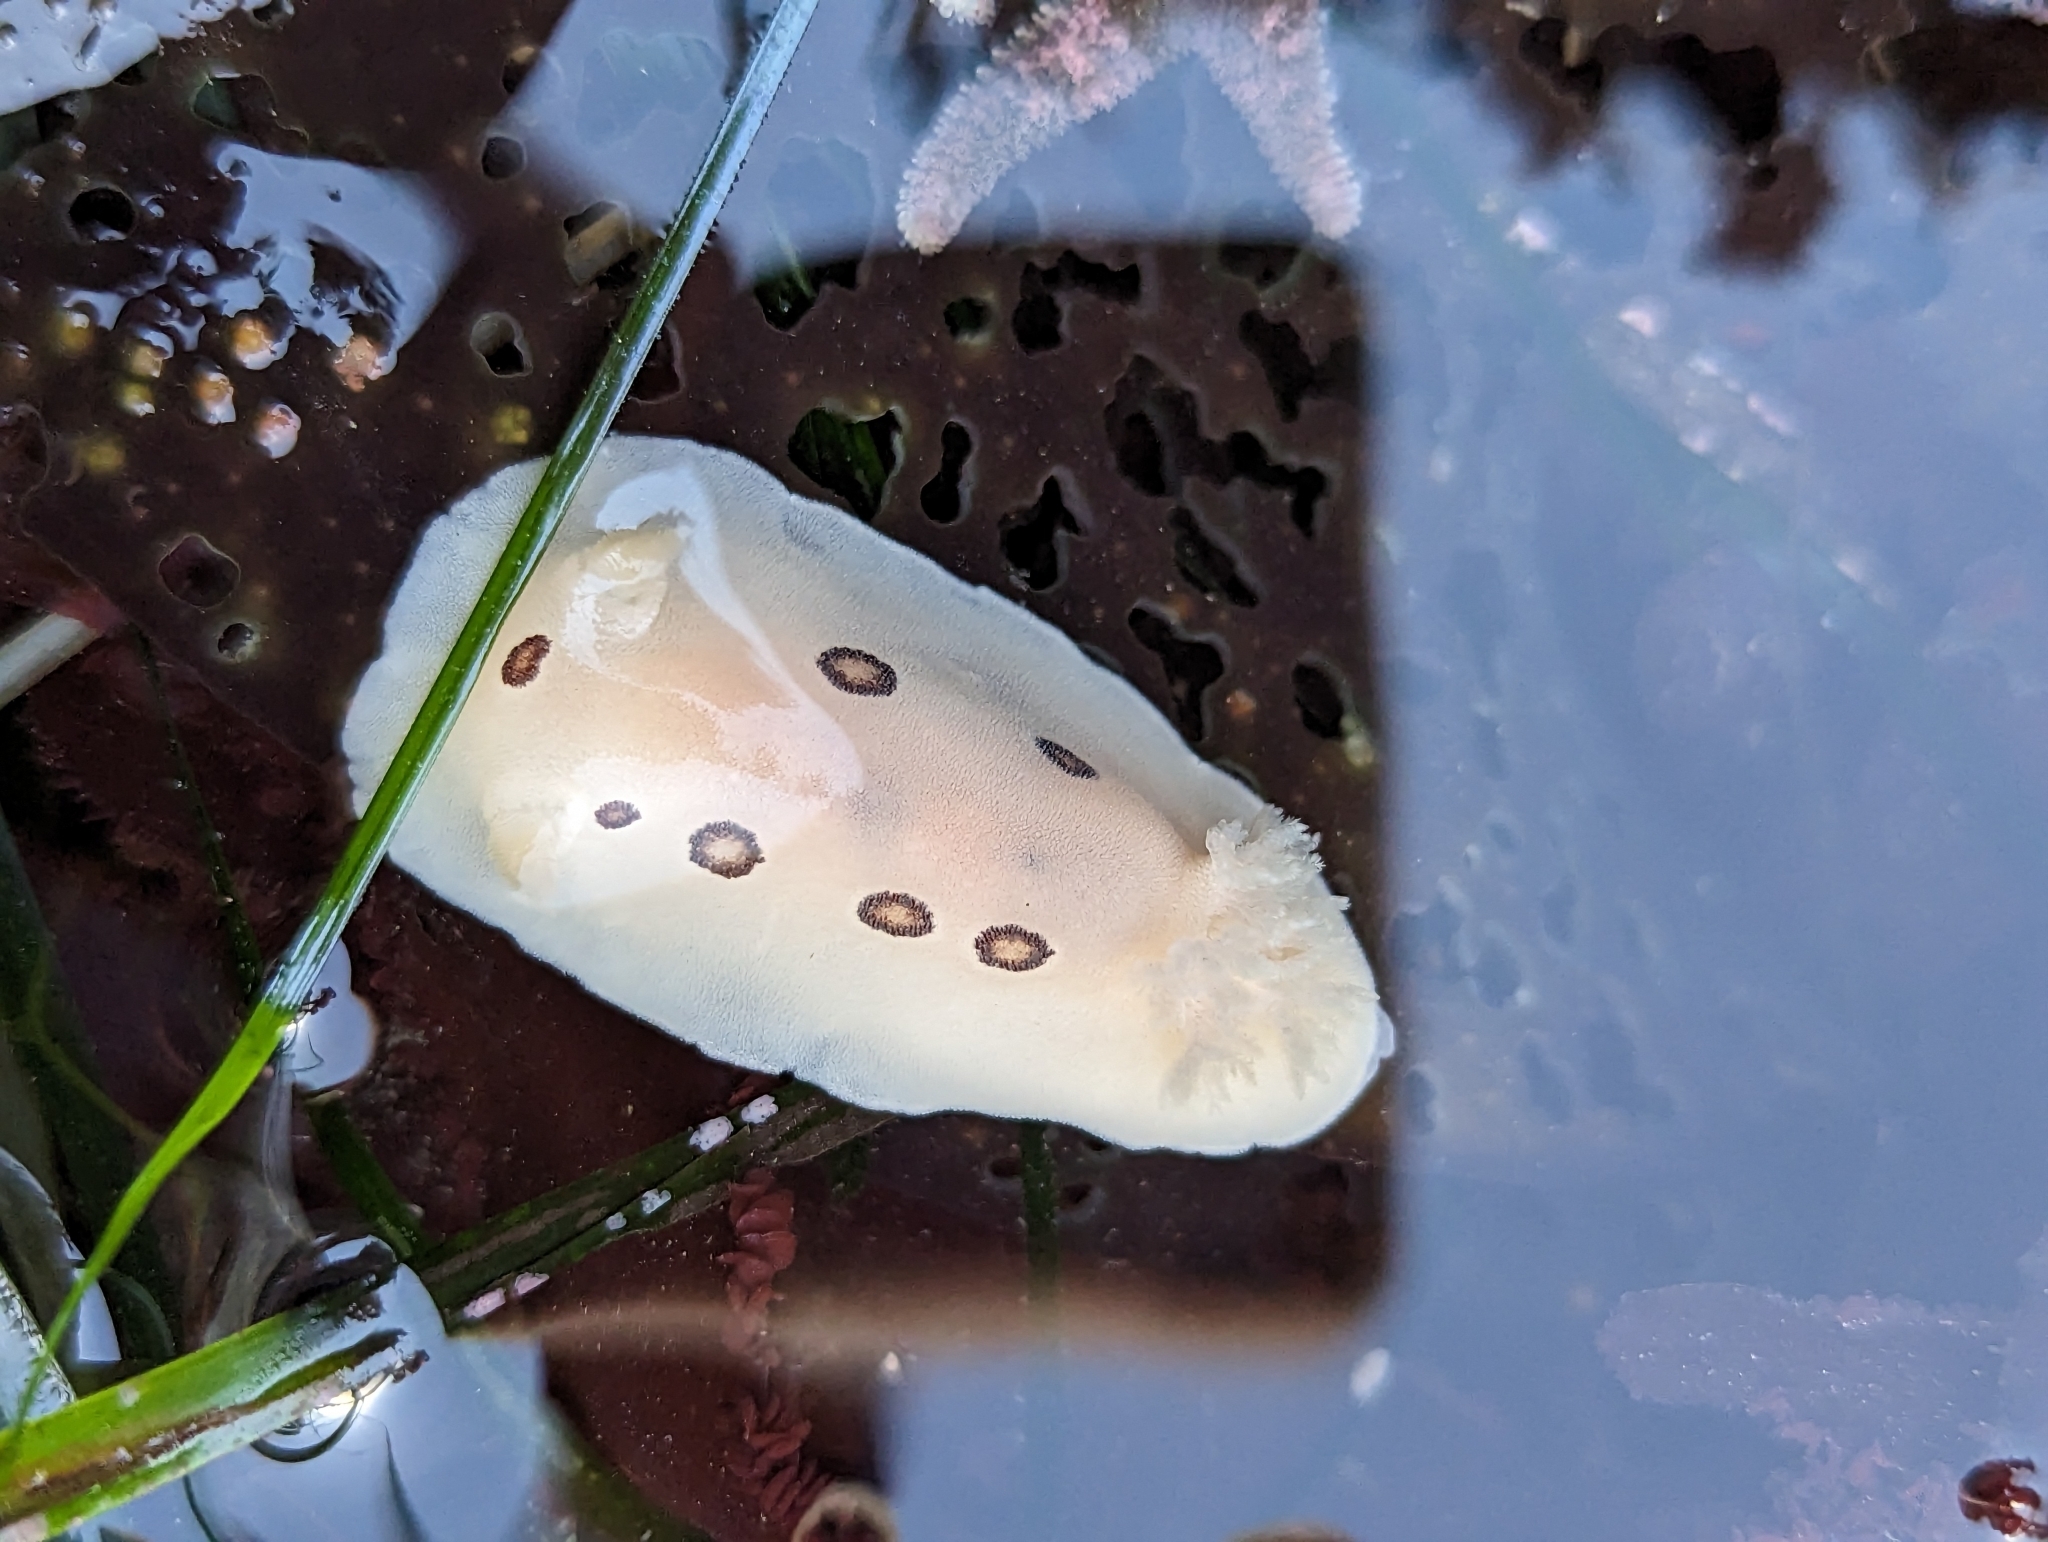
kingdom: Animalia
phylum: Mollusca
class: Gastropoda
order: Nudibranchia
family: Discodorididae
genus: Diaulula
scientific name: Diaulula sandiegensis
